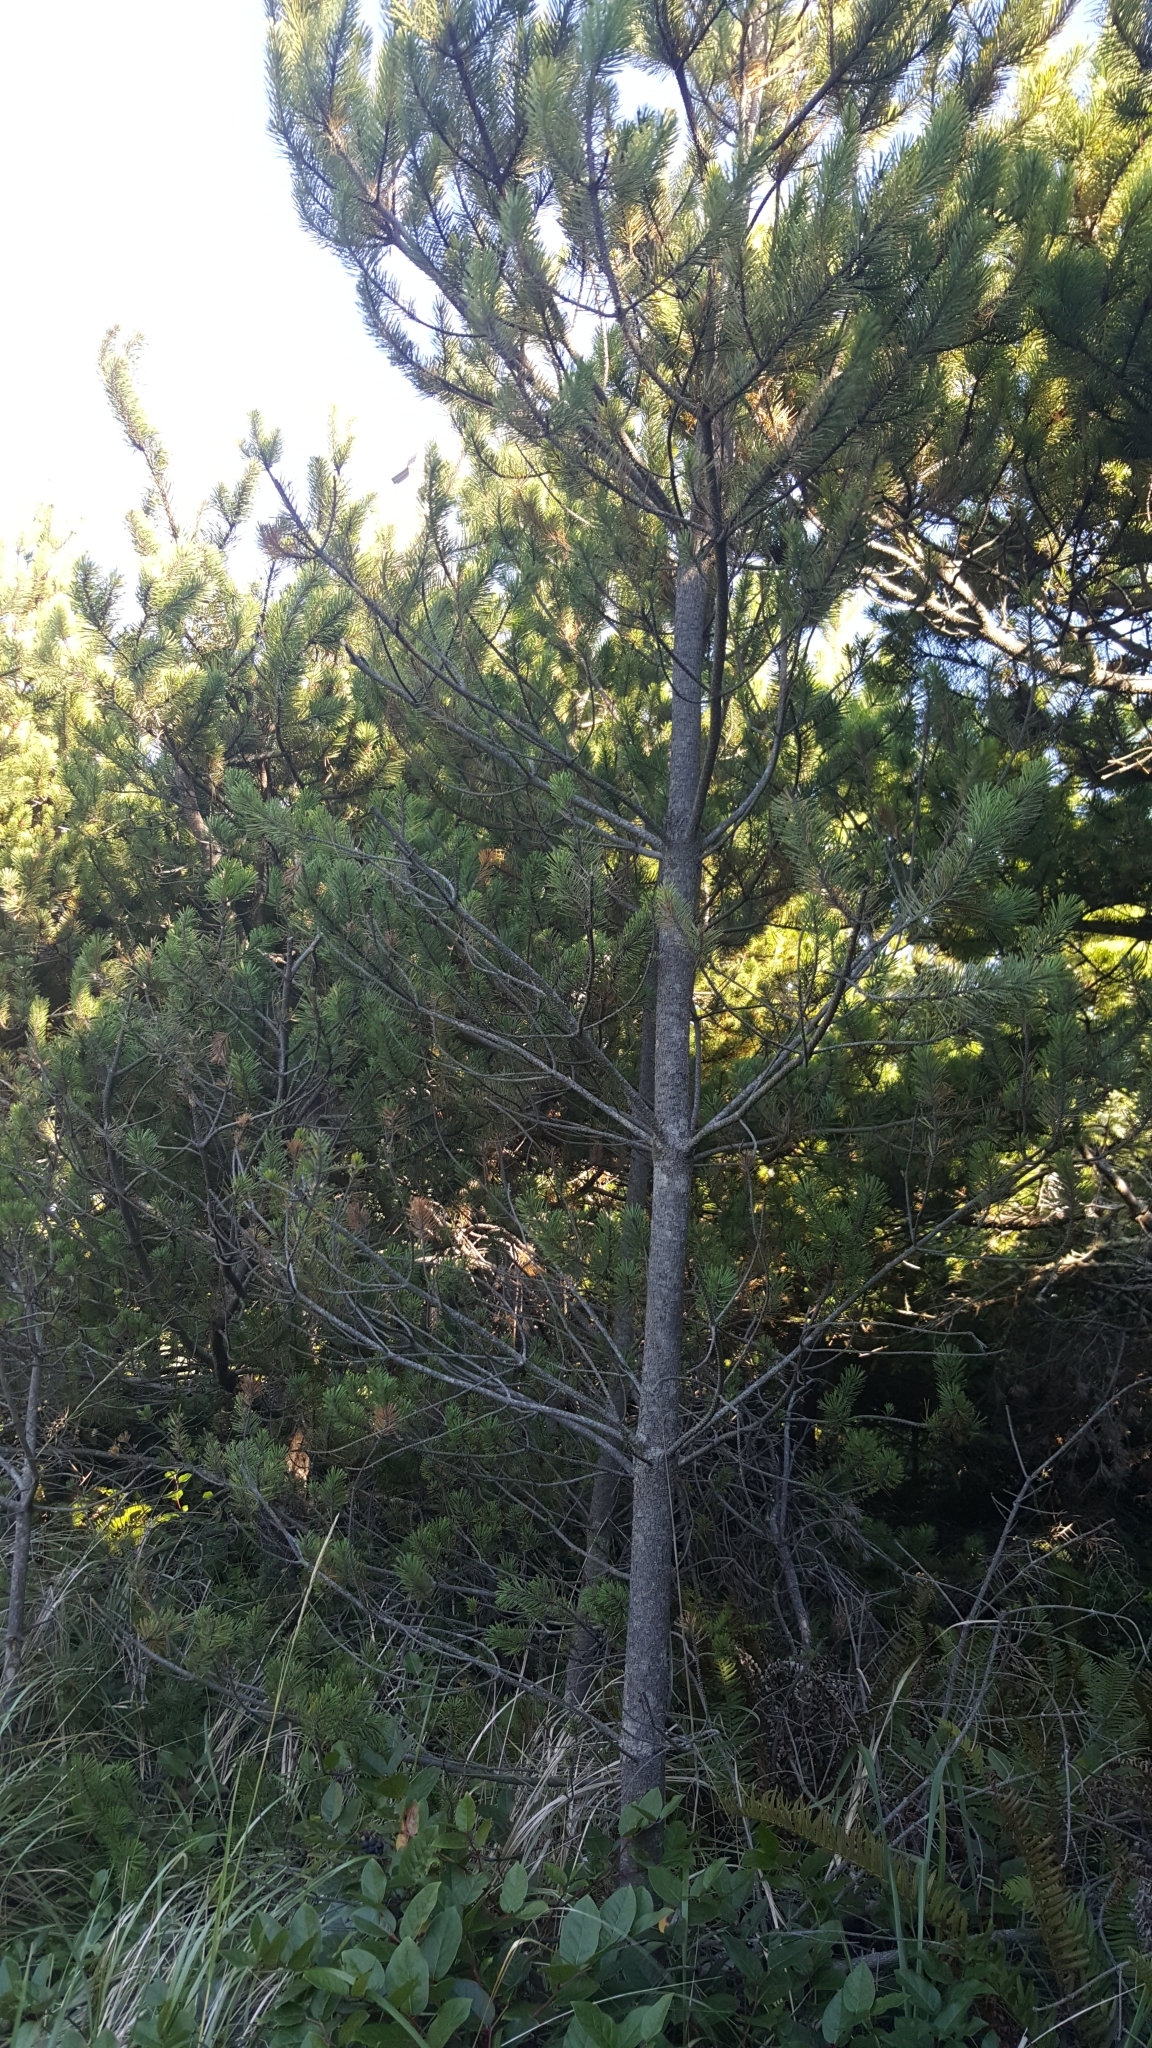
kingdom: Plantae
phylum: Tracheophyta
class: Pinopsida
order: Pinales
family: Pinaceae
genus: Pinus
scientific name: Pinus contorta
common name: Lodgepole pine
